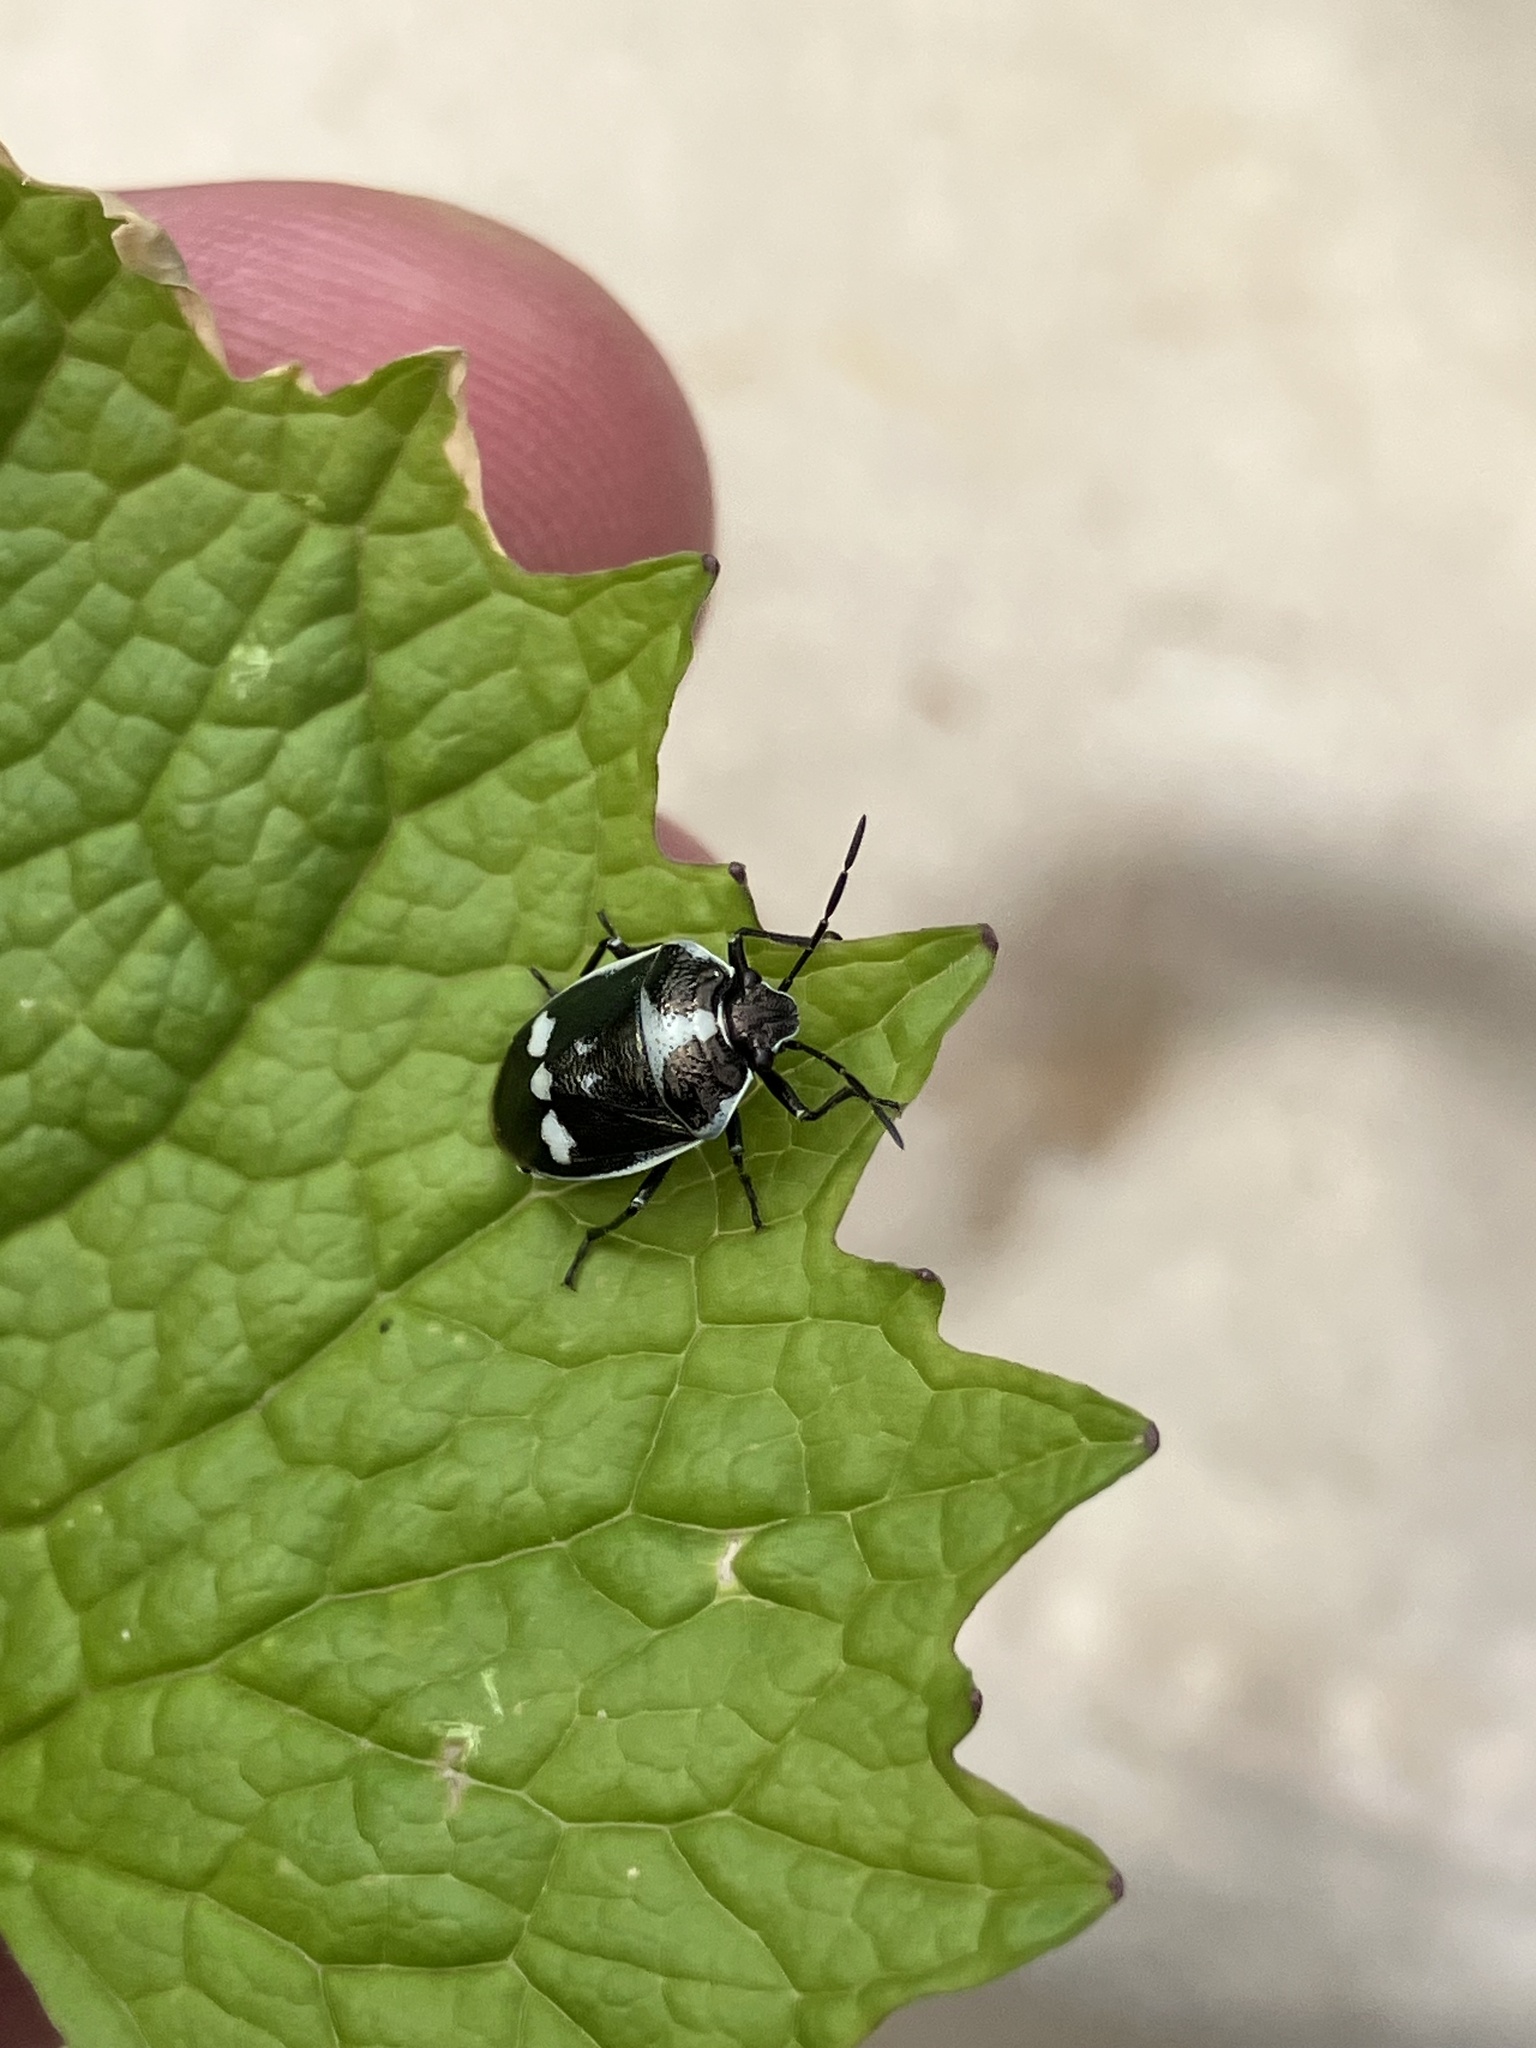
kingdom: Animalia
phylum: Arthropoda
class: Insecta
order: Hemiptera
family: Pentatomidae
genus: Eurydema
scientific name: Eurydema oleracea
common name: Cabbage bug
